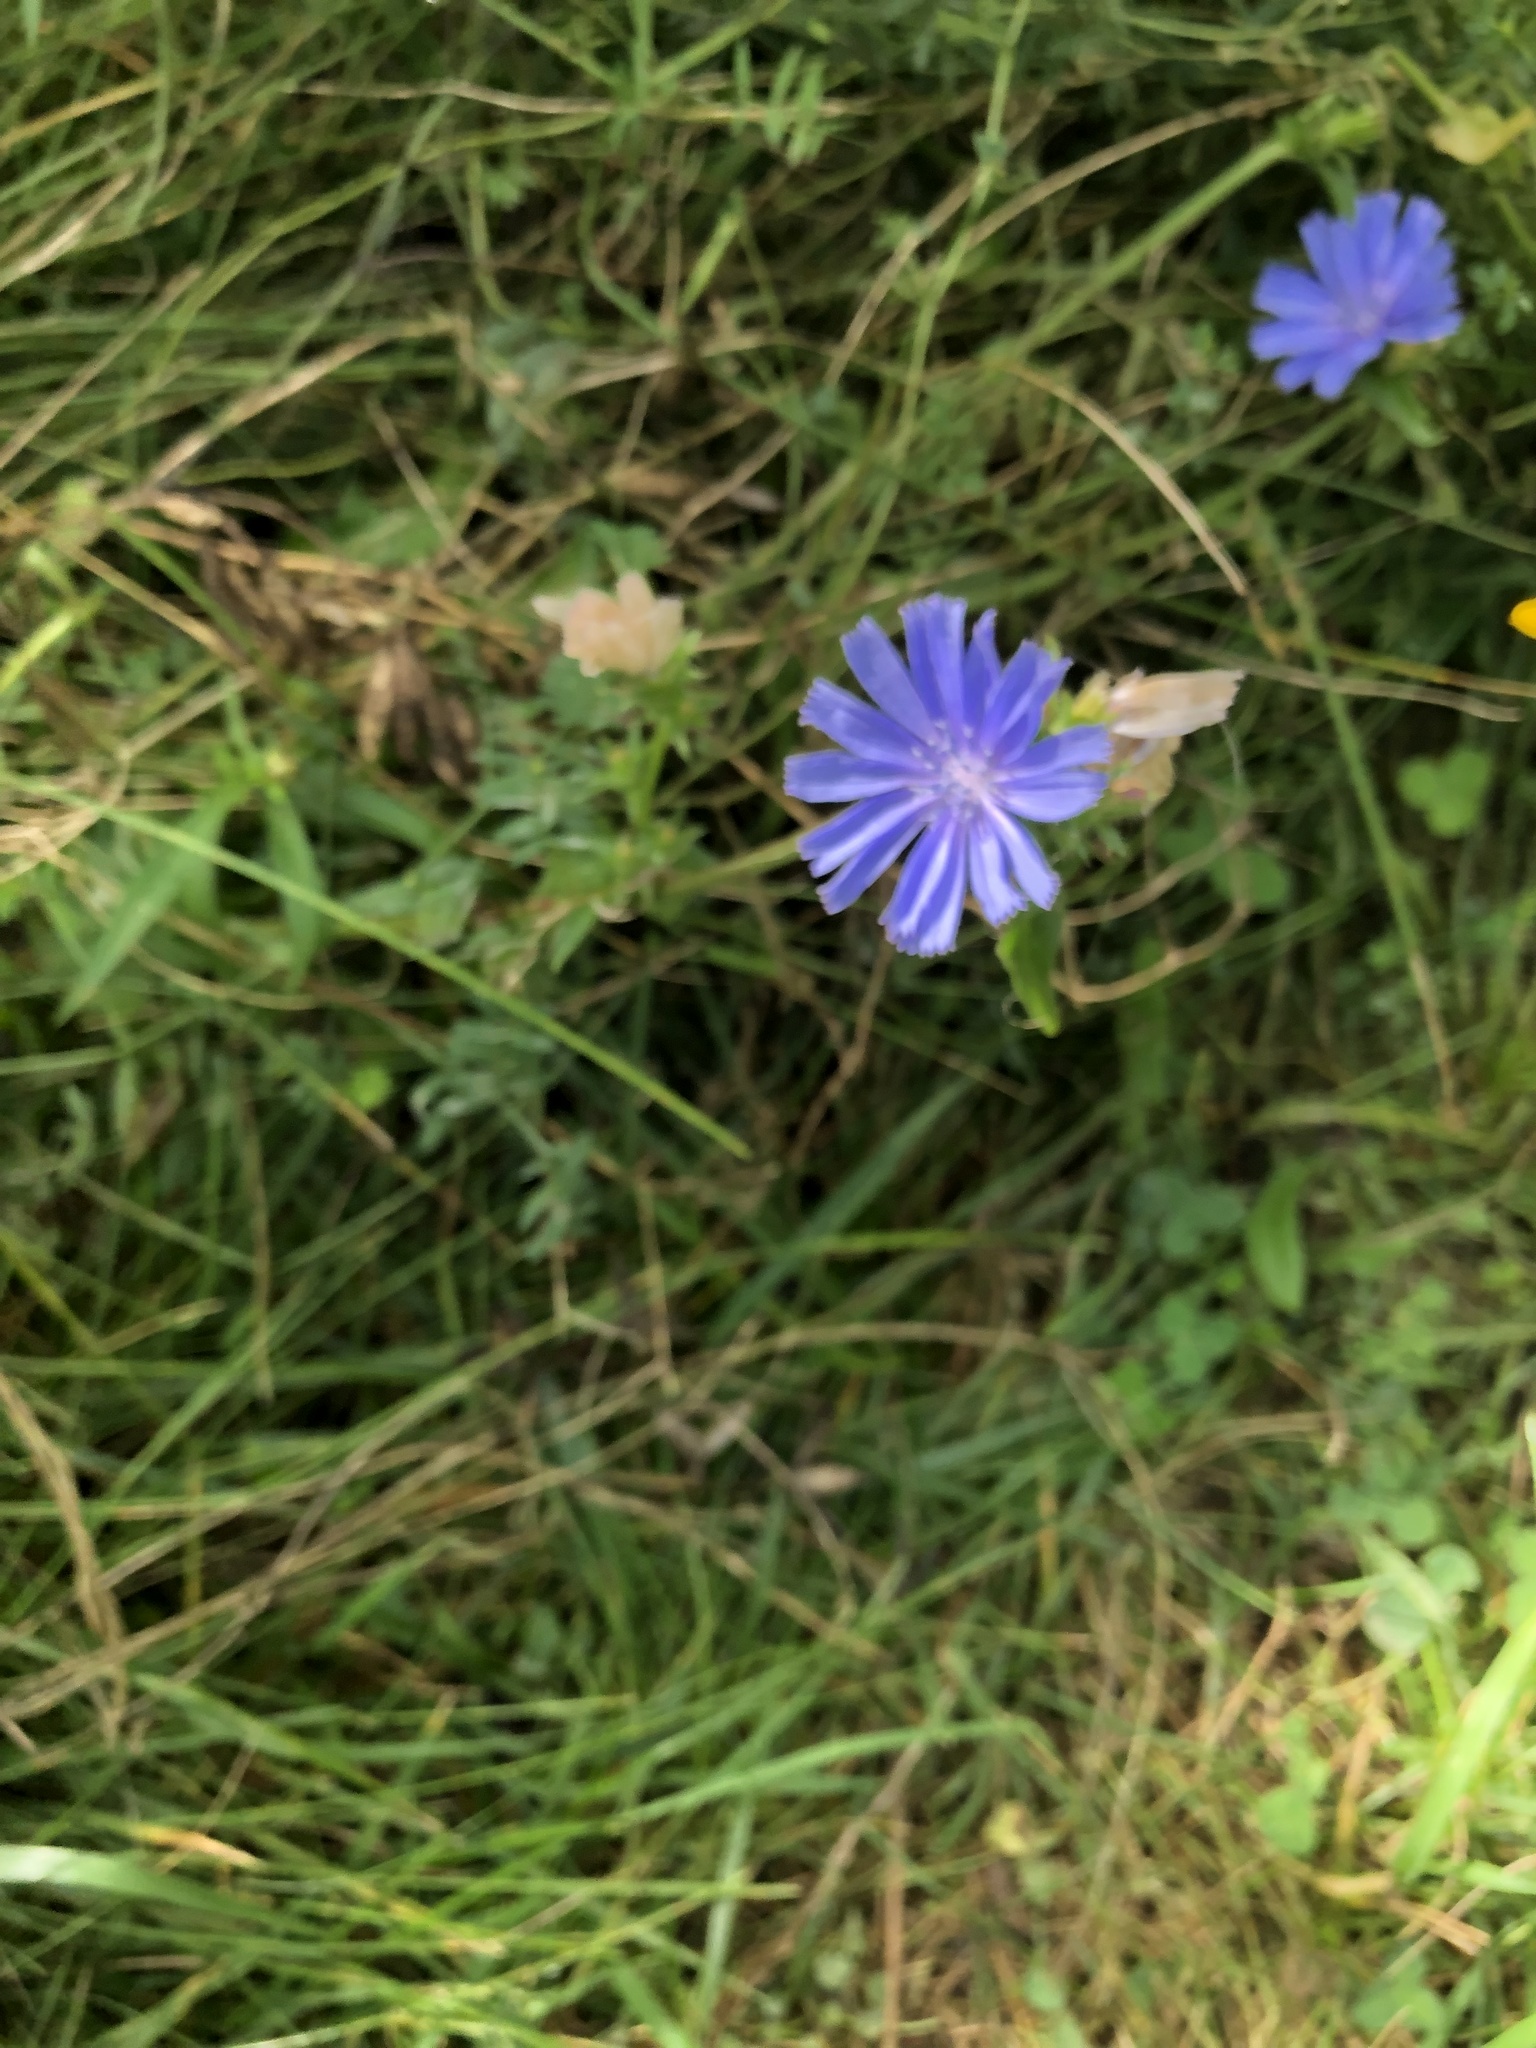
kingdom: Plantae
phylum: Tracheophyta
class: Magnoliopsida
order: Asterales
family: Asteraceae
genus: Cichorium
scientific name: Cichorium intybus
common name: Chicory
